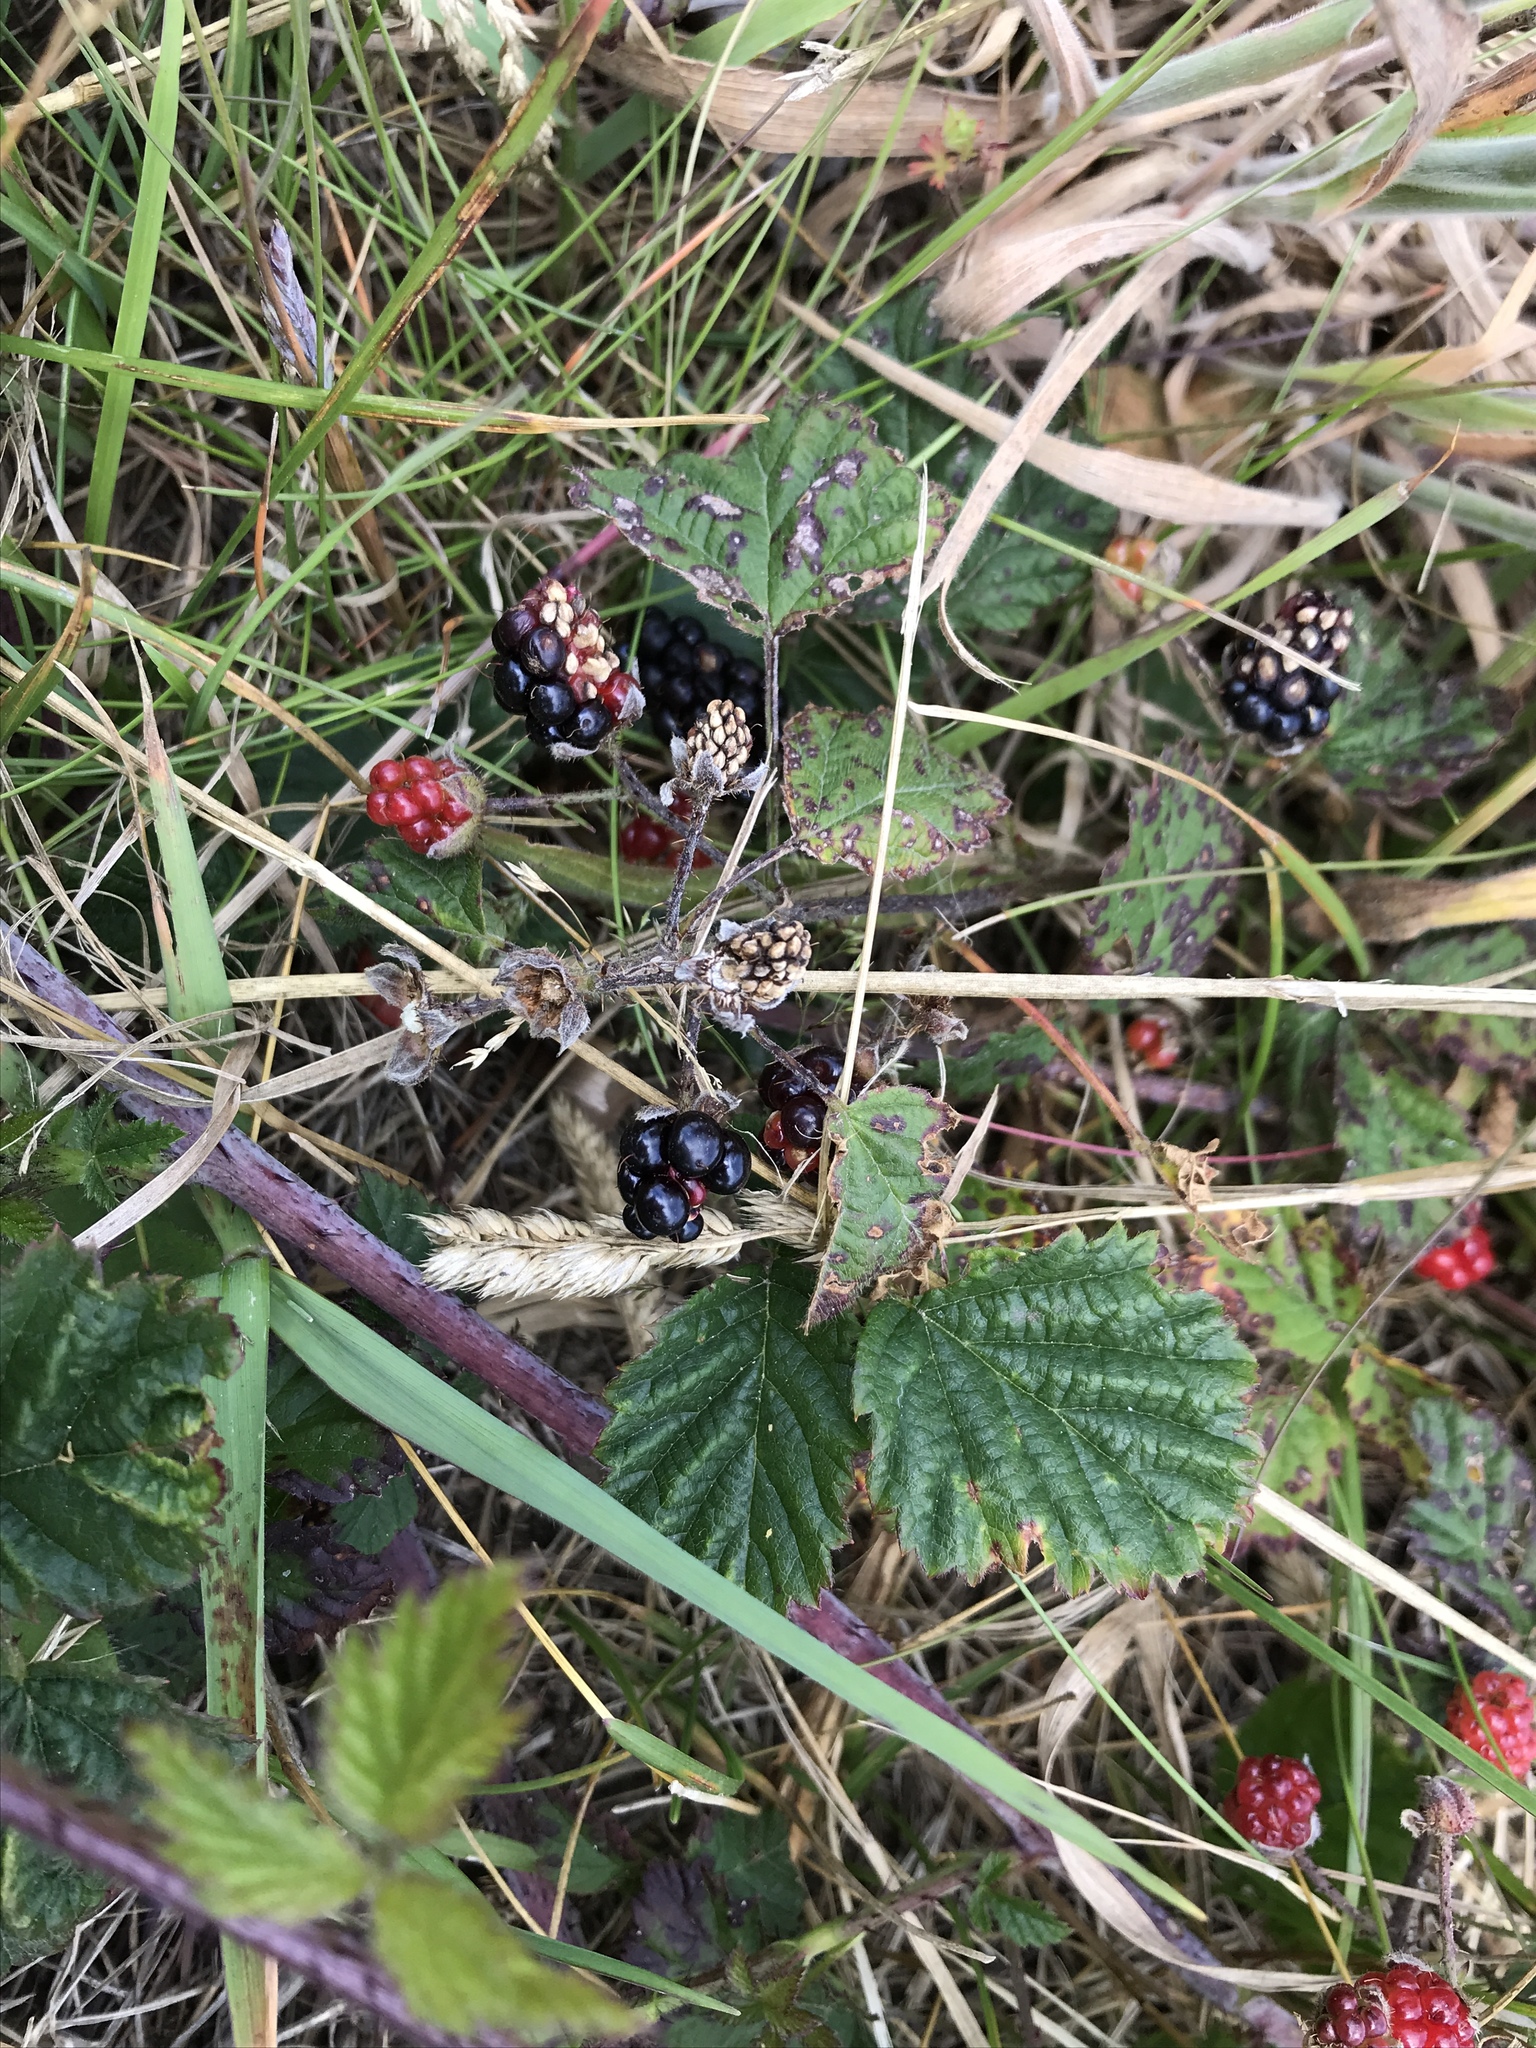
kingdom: Plantae
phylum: Tracheophyta
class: Magnoliopsida
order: Rosales
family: Rosaceae
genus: Rubus
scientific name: Rubus ursinus
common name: Pacific blackberry
